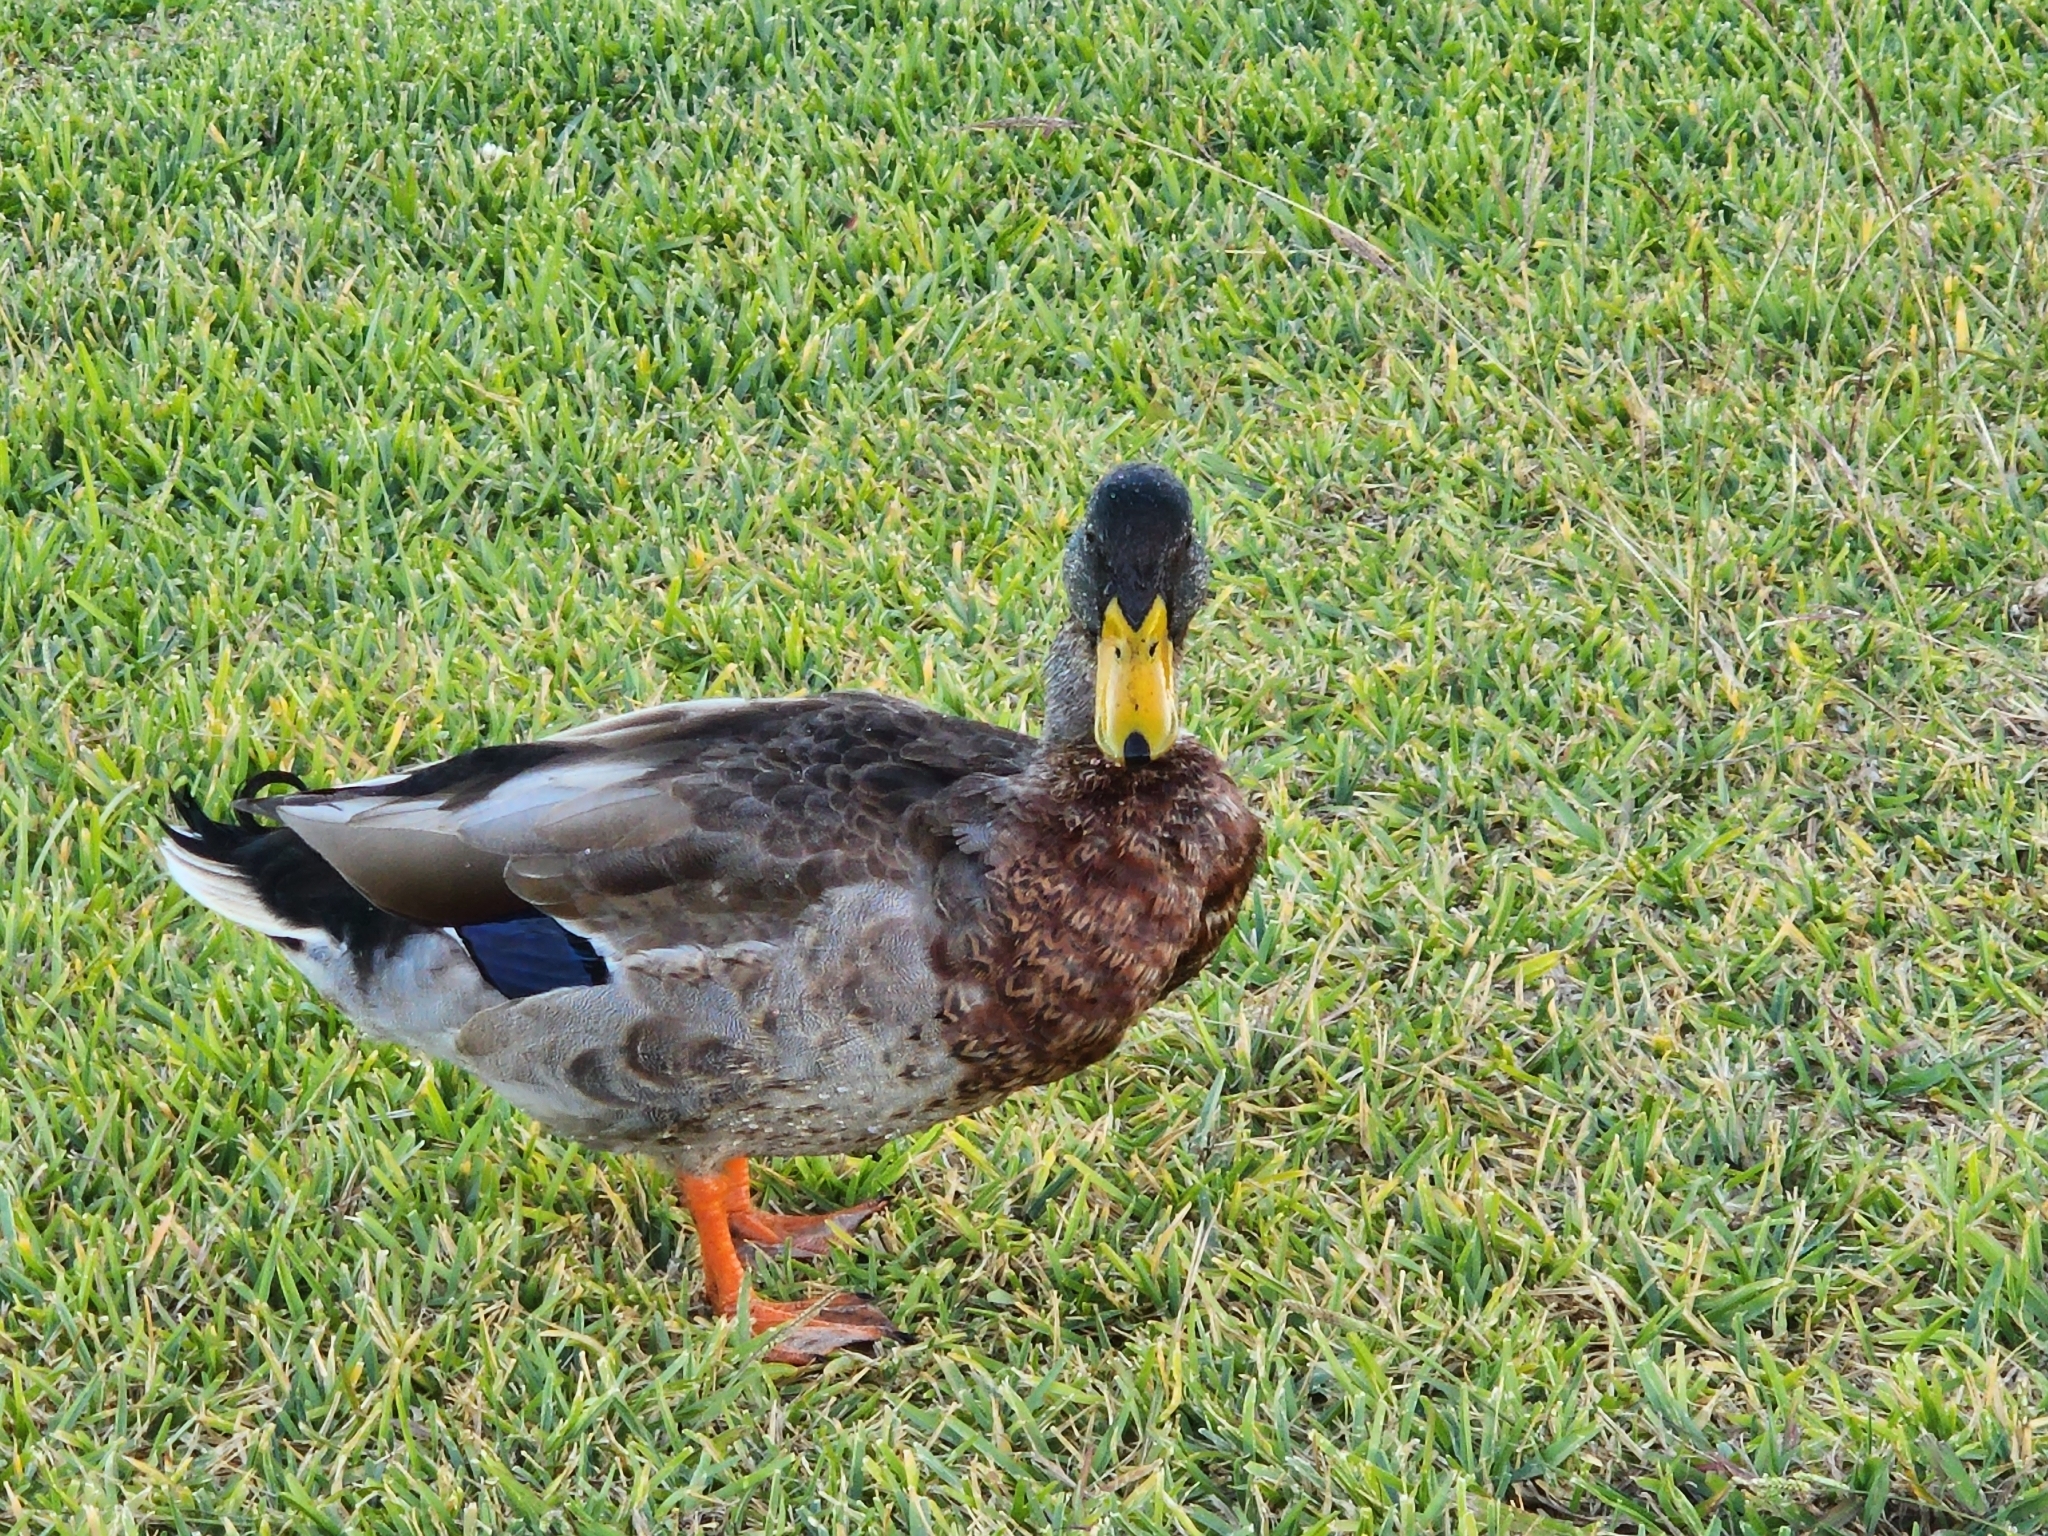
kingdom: Animalia
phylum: Chordata
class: Aves
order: Anseriformes
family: Anatidae
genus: Anas
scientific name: Anas platyrhynchos
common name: Mallard
